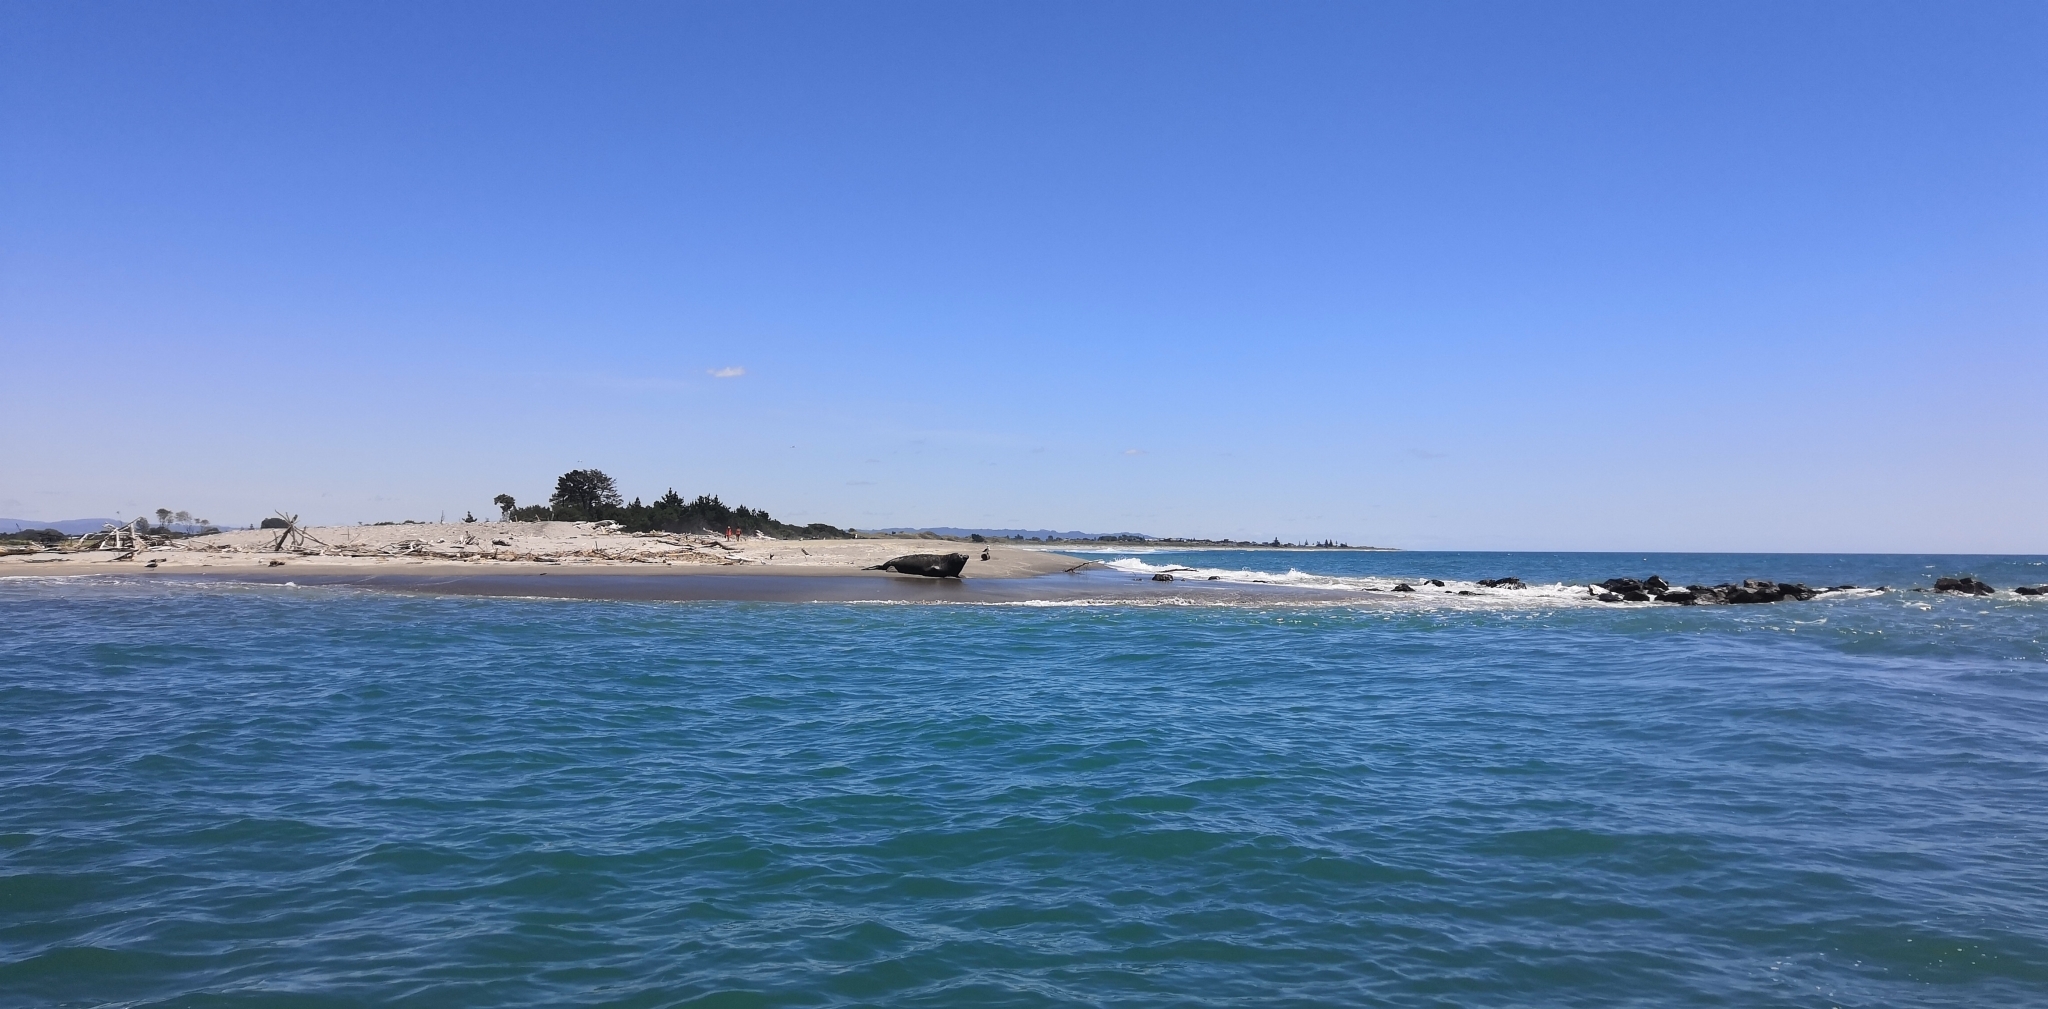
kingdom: Animalia
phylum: Chordata
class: Mammalia
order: Carnivora
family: Phocidae
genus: Mirounga
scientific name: Mirounga leonina
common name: Southern elephant seal
